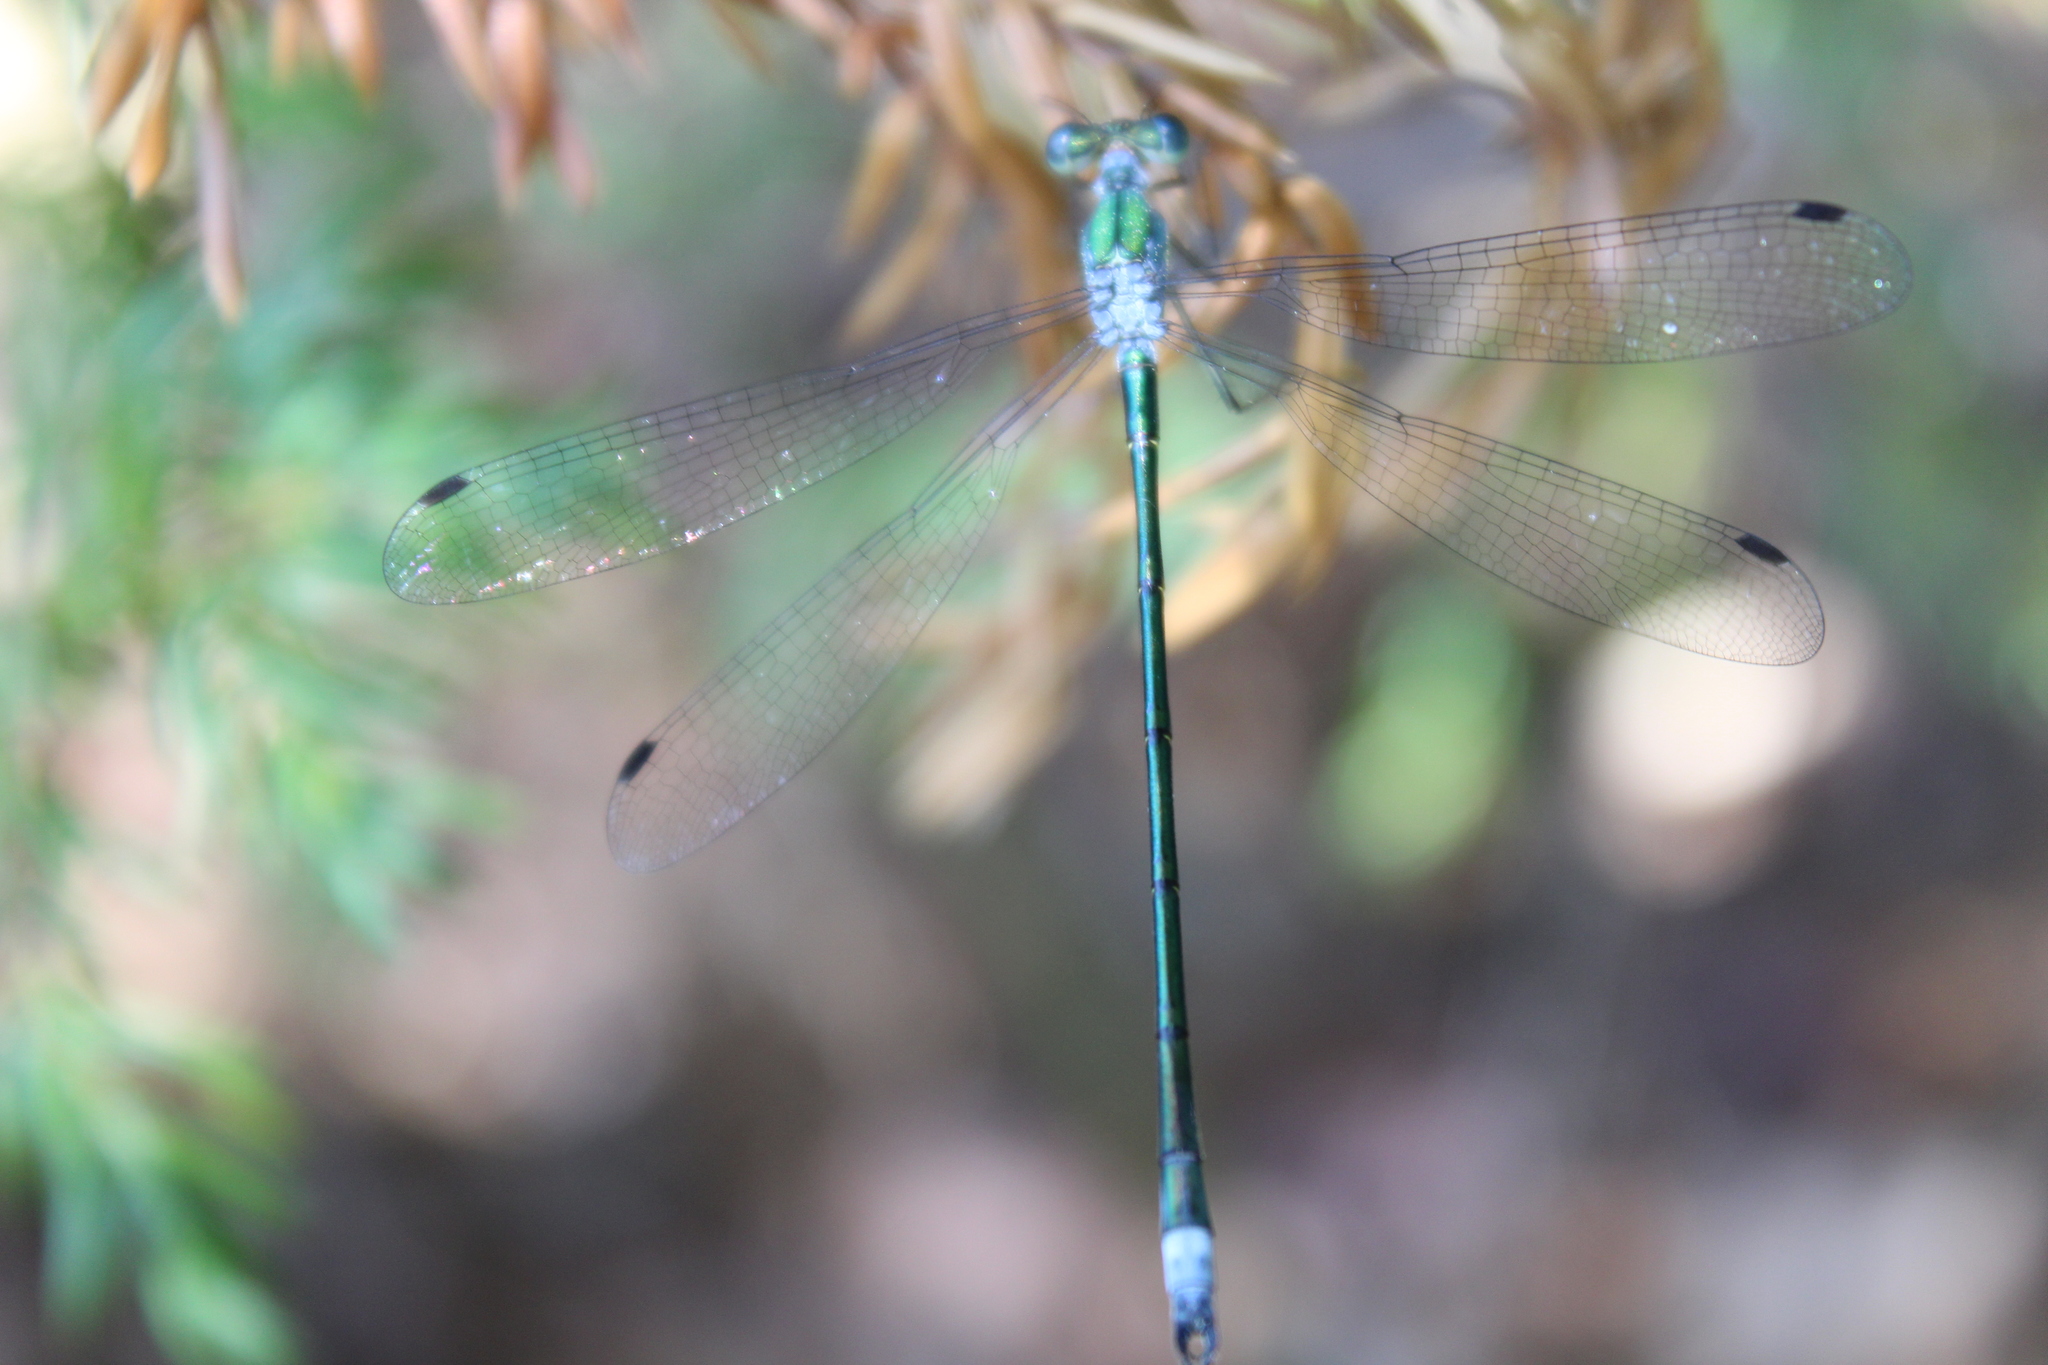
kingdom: Animalia
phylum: Arthropoda
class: Insecta
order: Odonata
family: Lestidae
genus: Lestes
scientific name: Lestes inaequalis
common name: Elegant spreadwing
